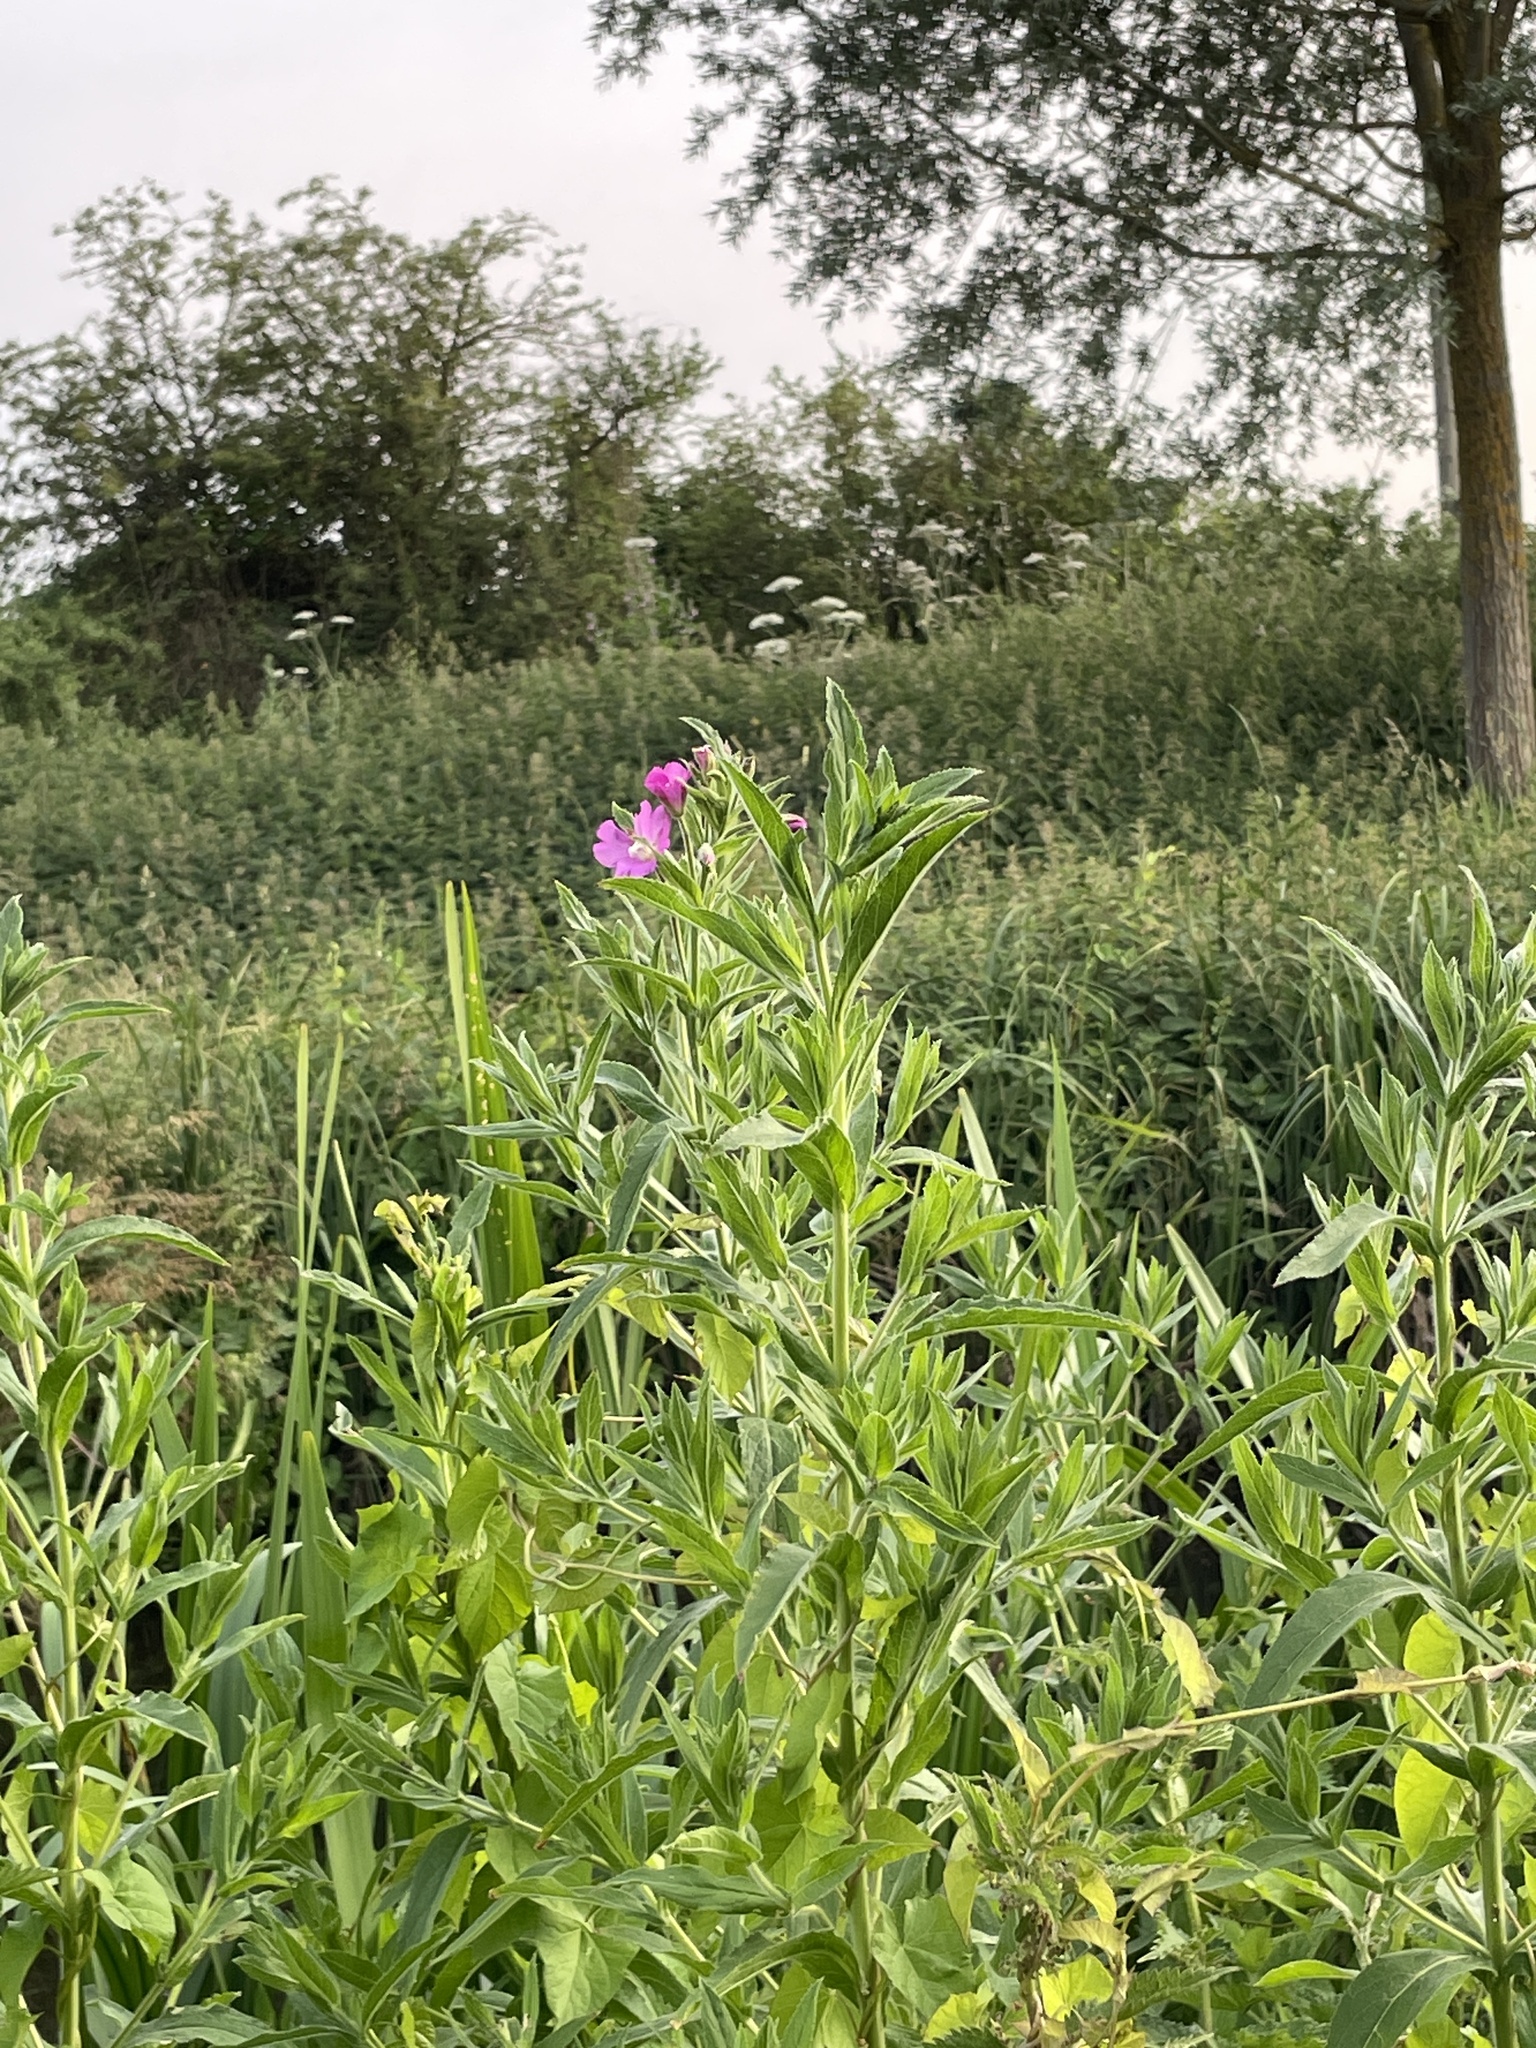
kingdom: Plantae
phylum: Tracheophyta
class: Magnoliopsida
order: Myrtales
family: Onagraceae
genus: Epilobium
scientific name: Epilobium hirsutum
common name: Great willowherb
